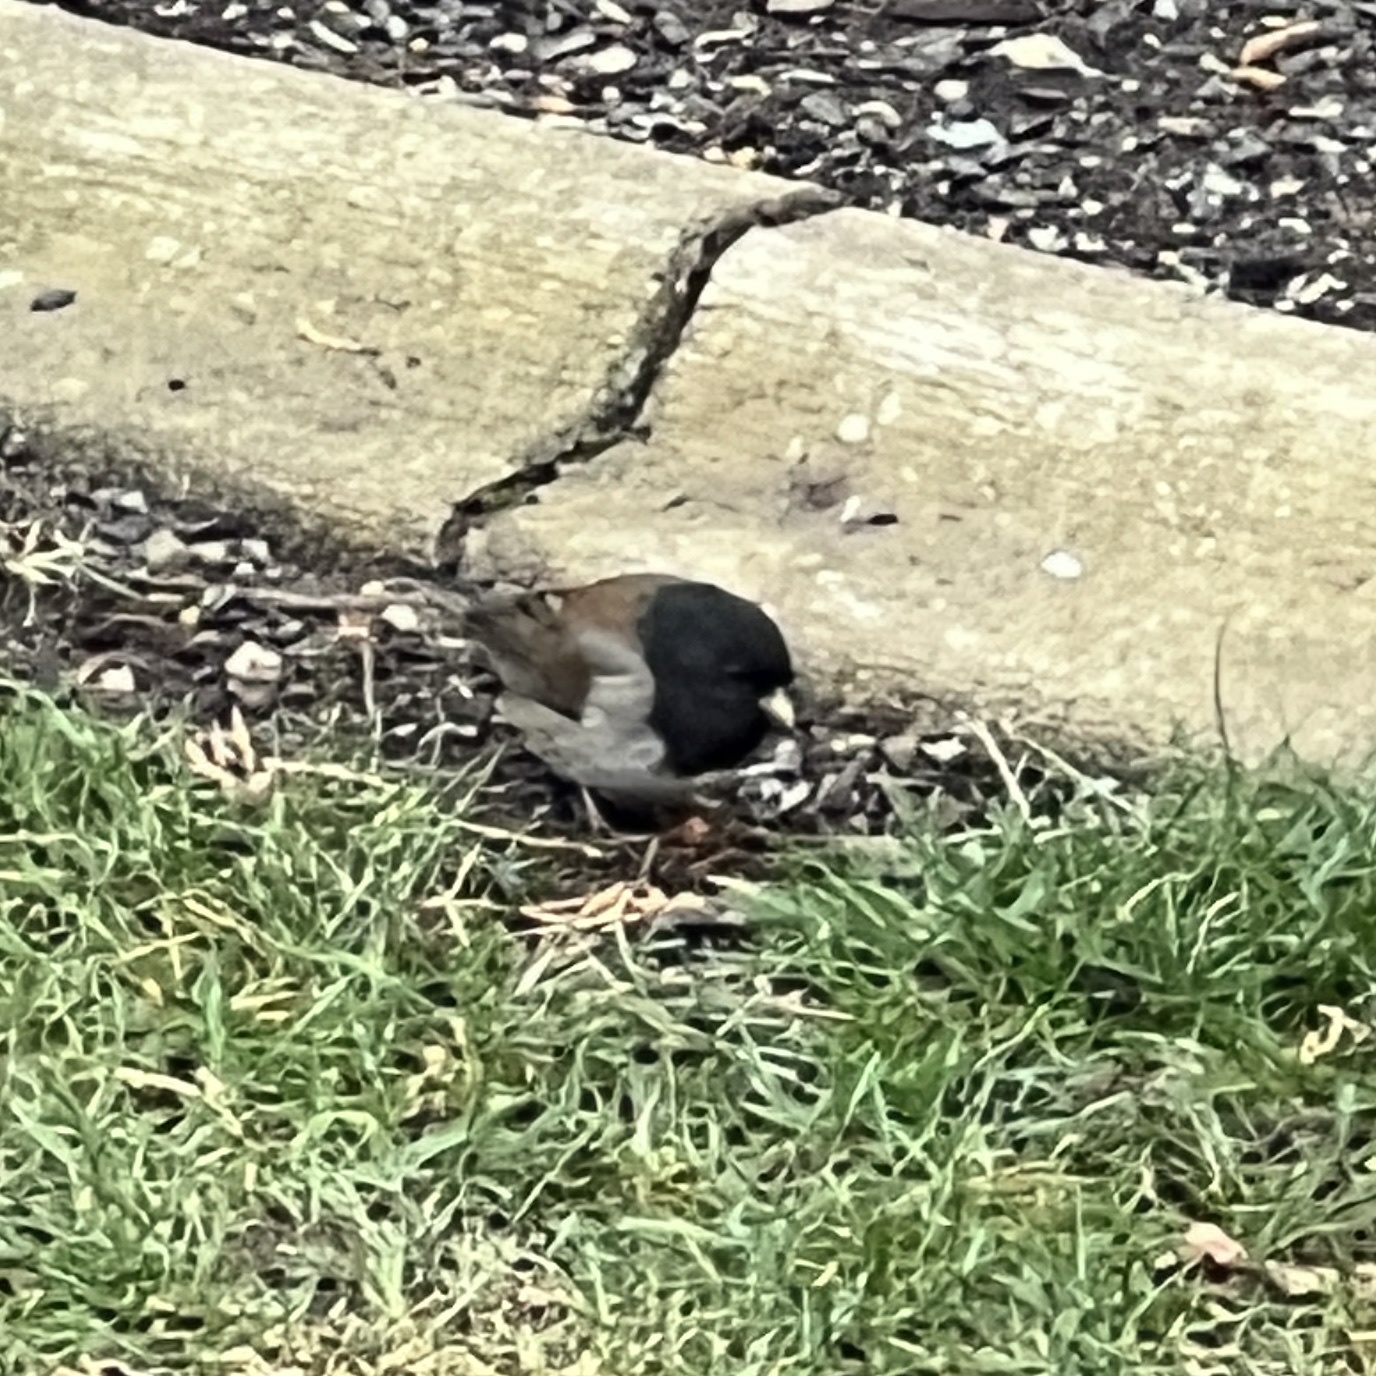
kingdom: Animalia
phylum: Chordata
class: Aves
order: Passeriformes
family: Passerellidae
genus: Junco
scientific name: Junco hyemalis
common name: Dark-eyed junco
